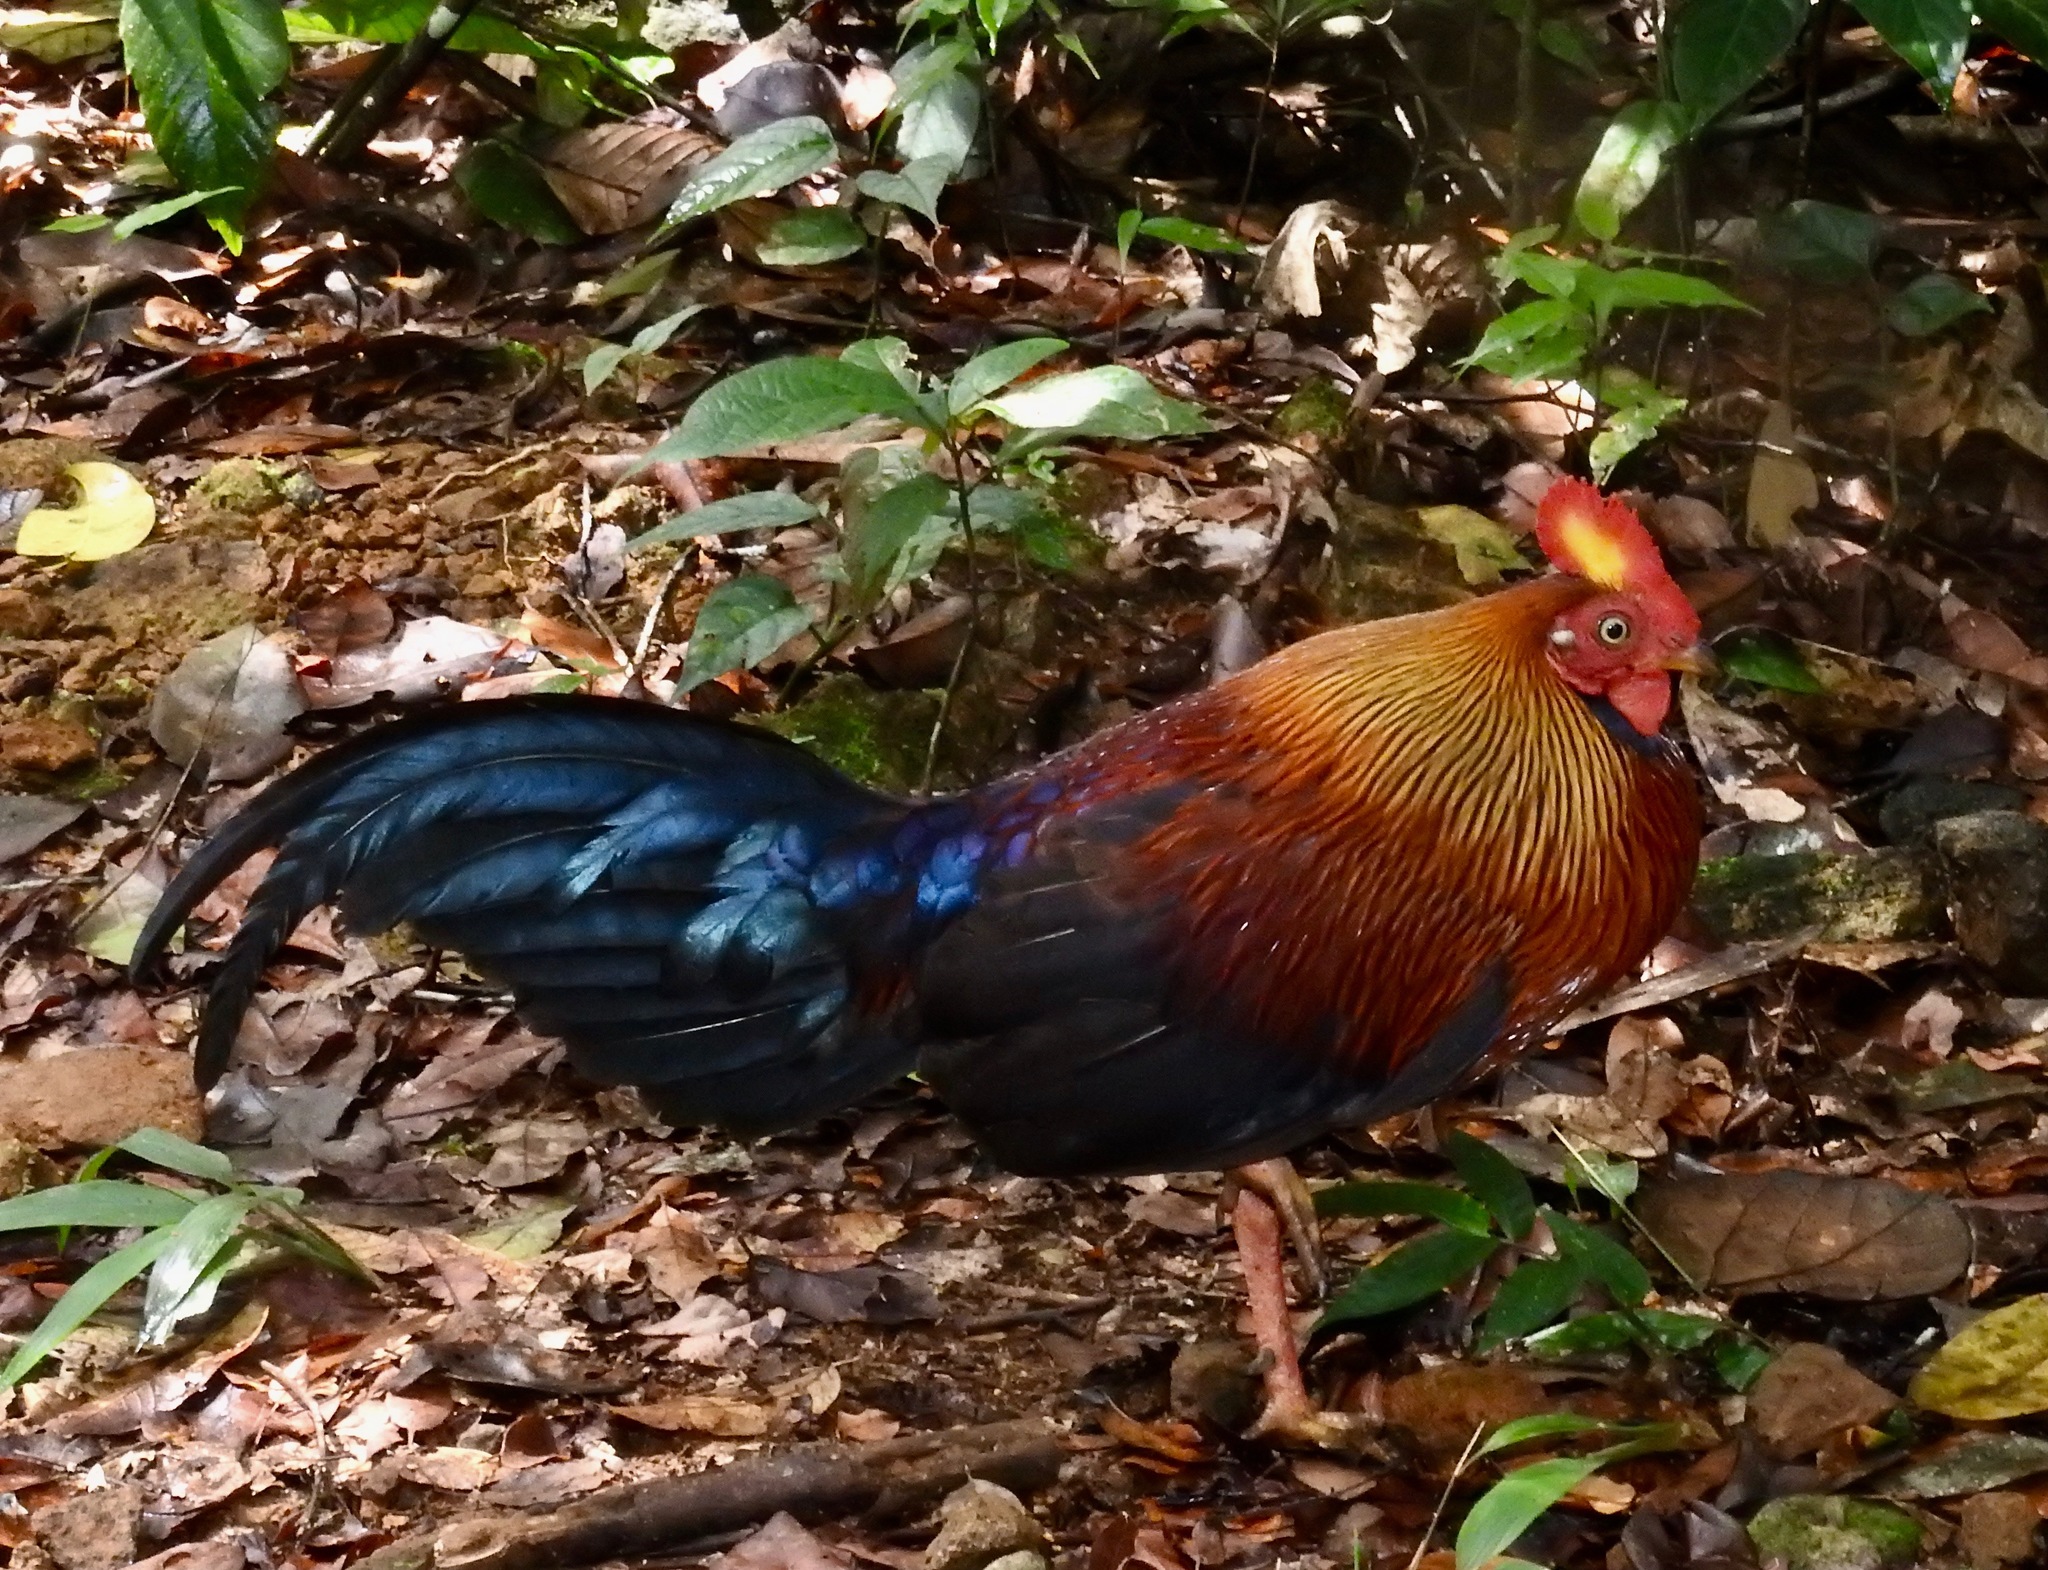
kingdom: Animalia
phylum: Chordata
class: Aves
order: Galliformes
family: Phasianidae
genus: Gallus
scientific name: Gallus lafayettii
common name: Sri lanka junglefowl
